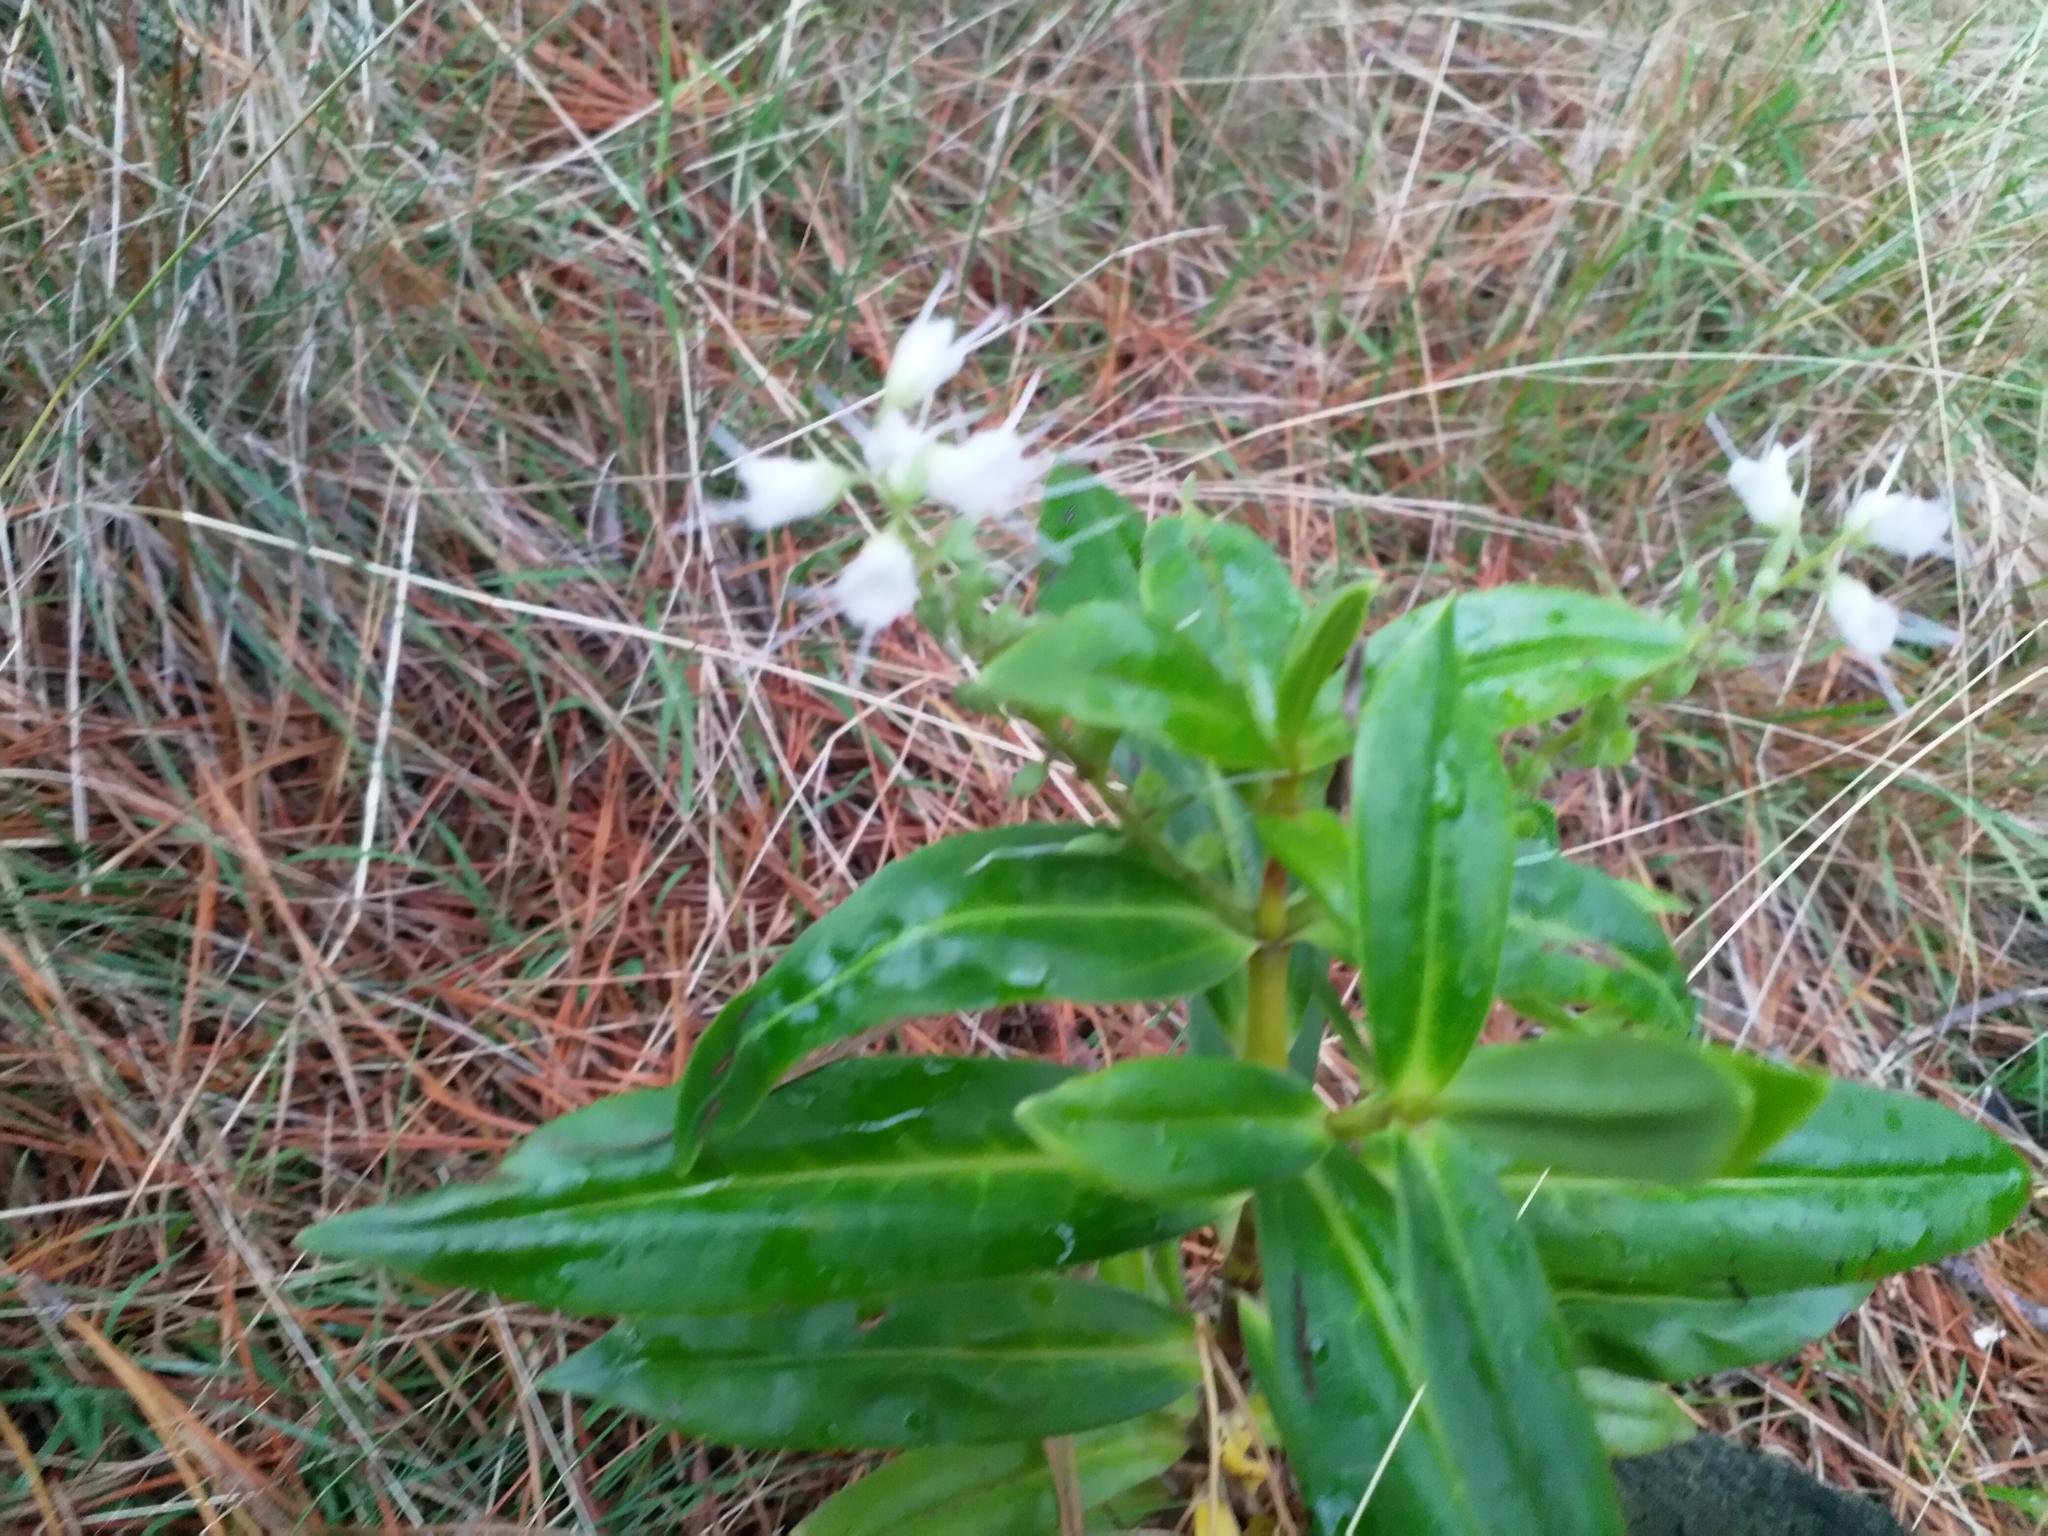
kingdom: Plantae
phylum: Tracheophyta
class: Magnoliopsida
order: Lamiales
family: Plantaginaceae
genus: Veronica
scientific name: Veronica macrocarpa
